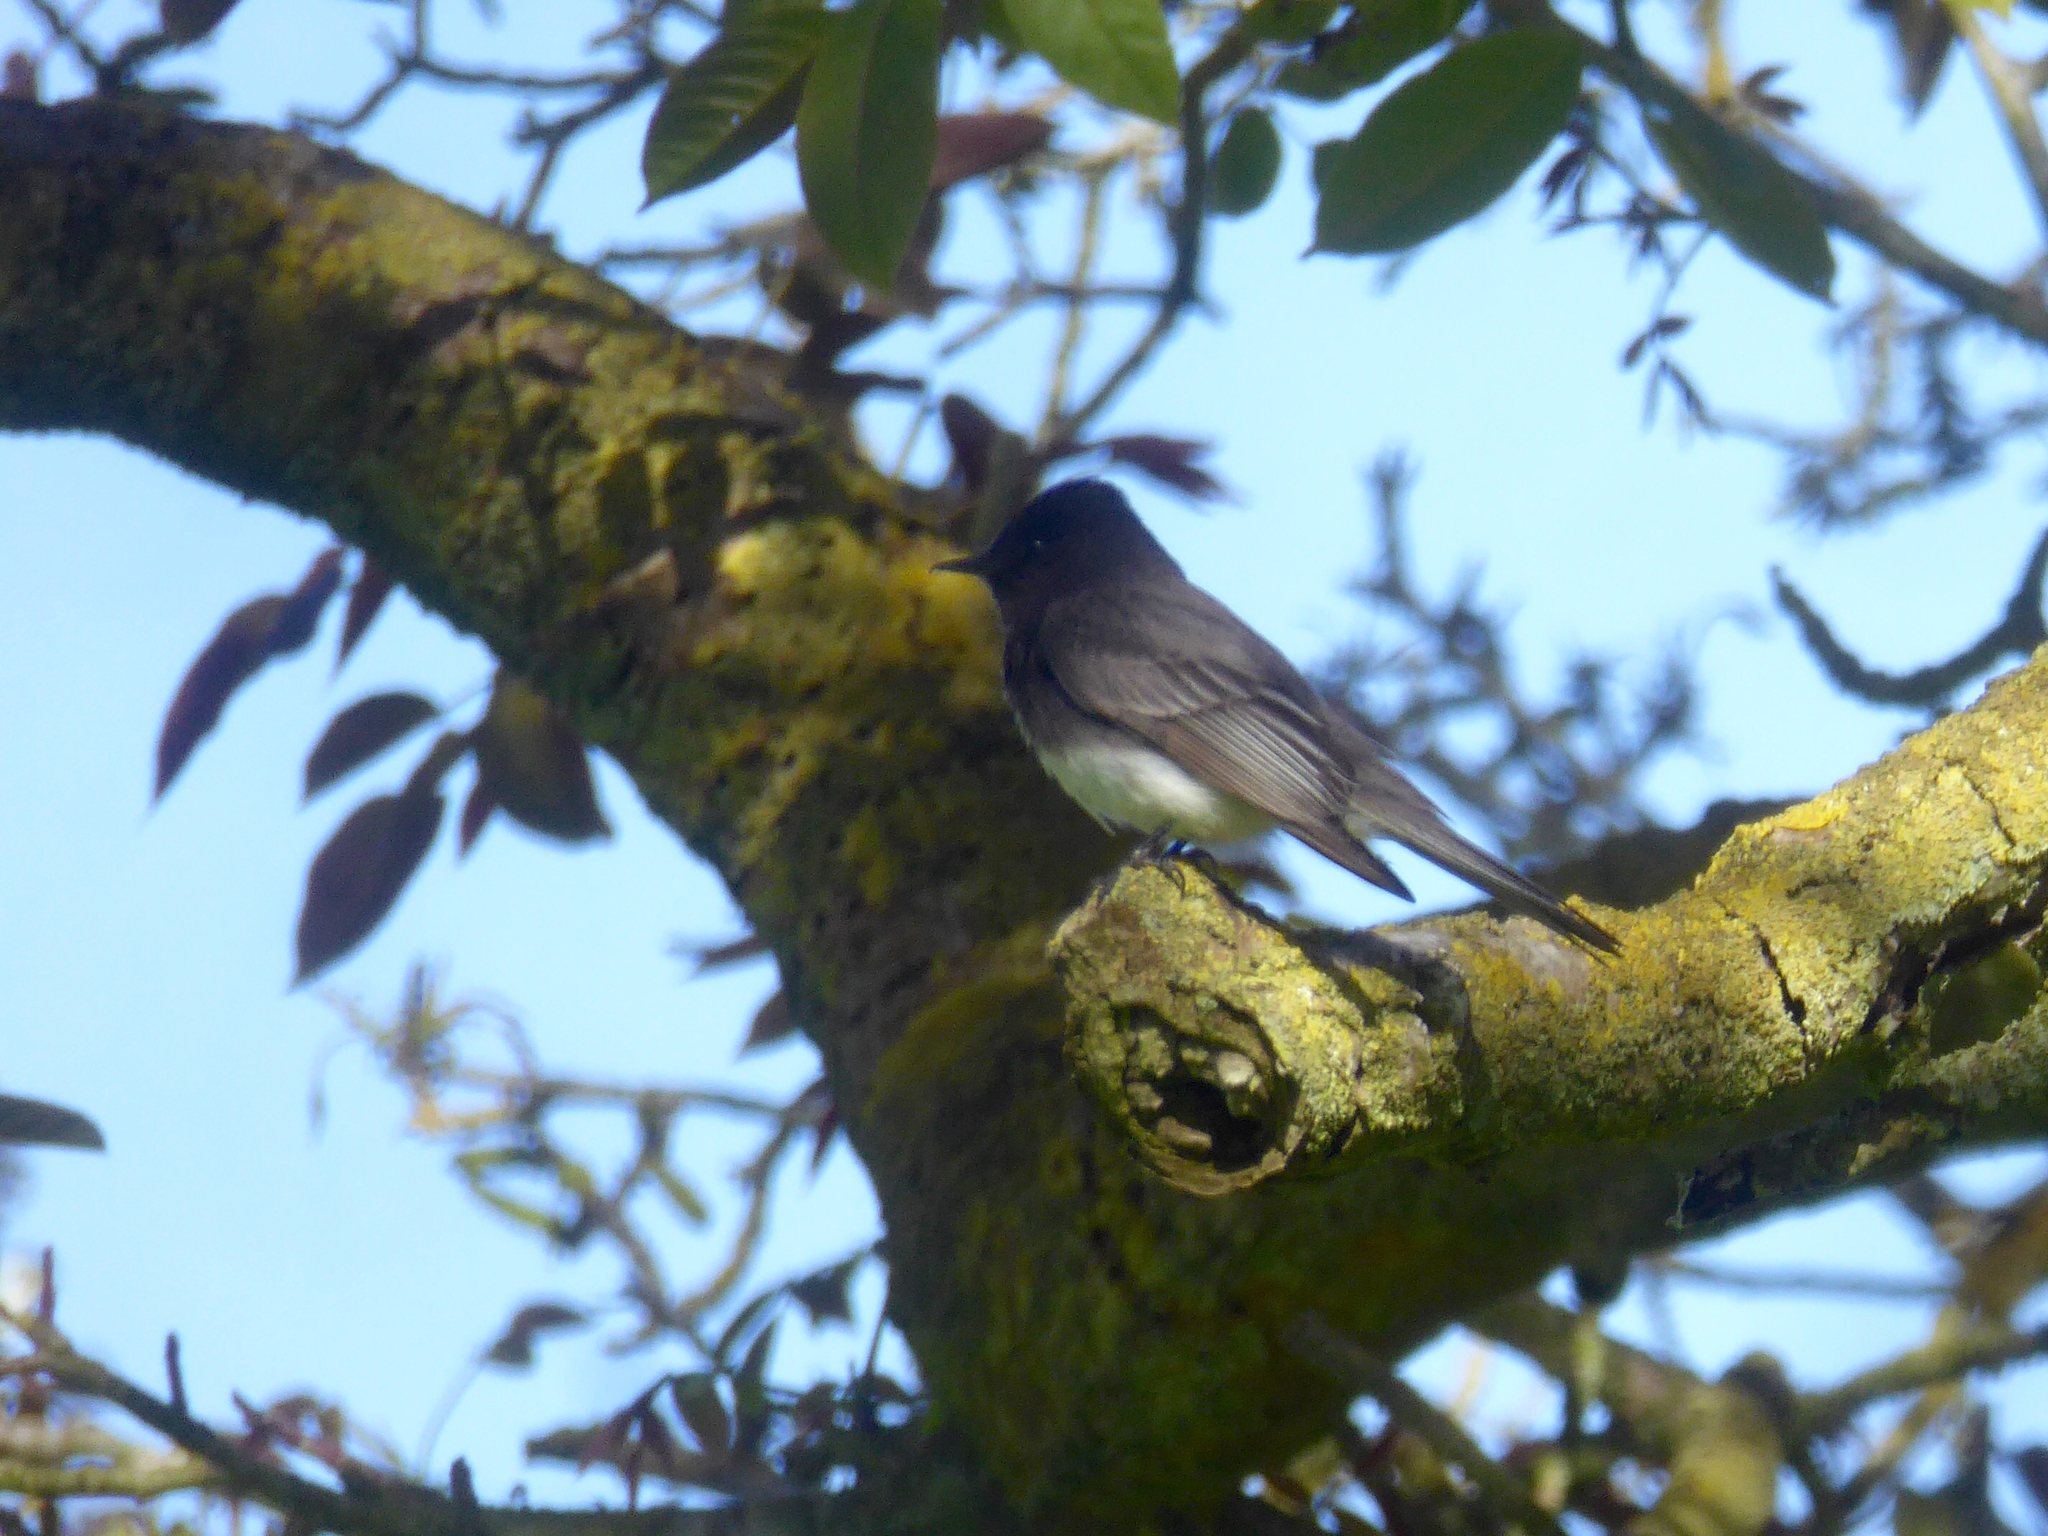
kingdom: Animalia
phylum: Chordata
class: Aves
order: Passeriformes
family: Tyrannidae
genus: Sayornis
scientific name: Sayornis nigricans
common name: Black phoebe
